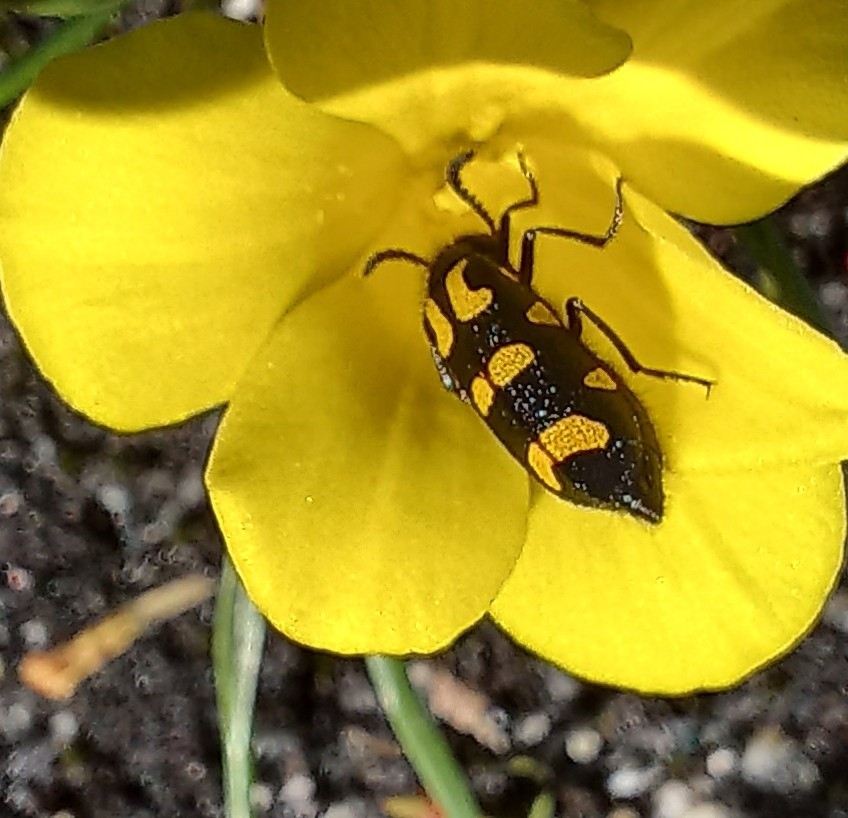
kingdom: Animalia
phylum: Arthropoda
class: Insecta
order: Coleoptera
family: Meloidae
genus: Ceroctis
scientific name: Ceroctis capensis
